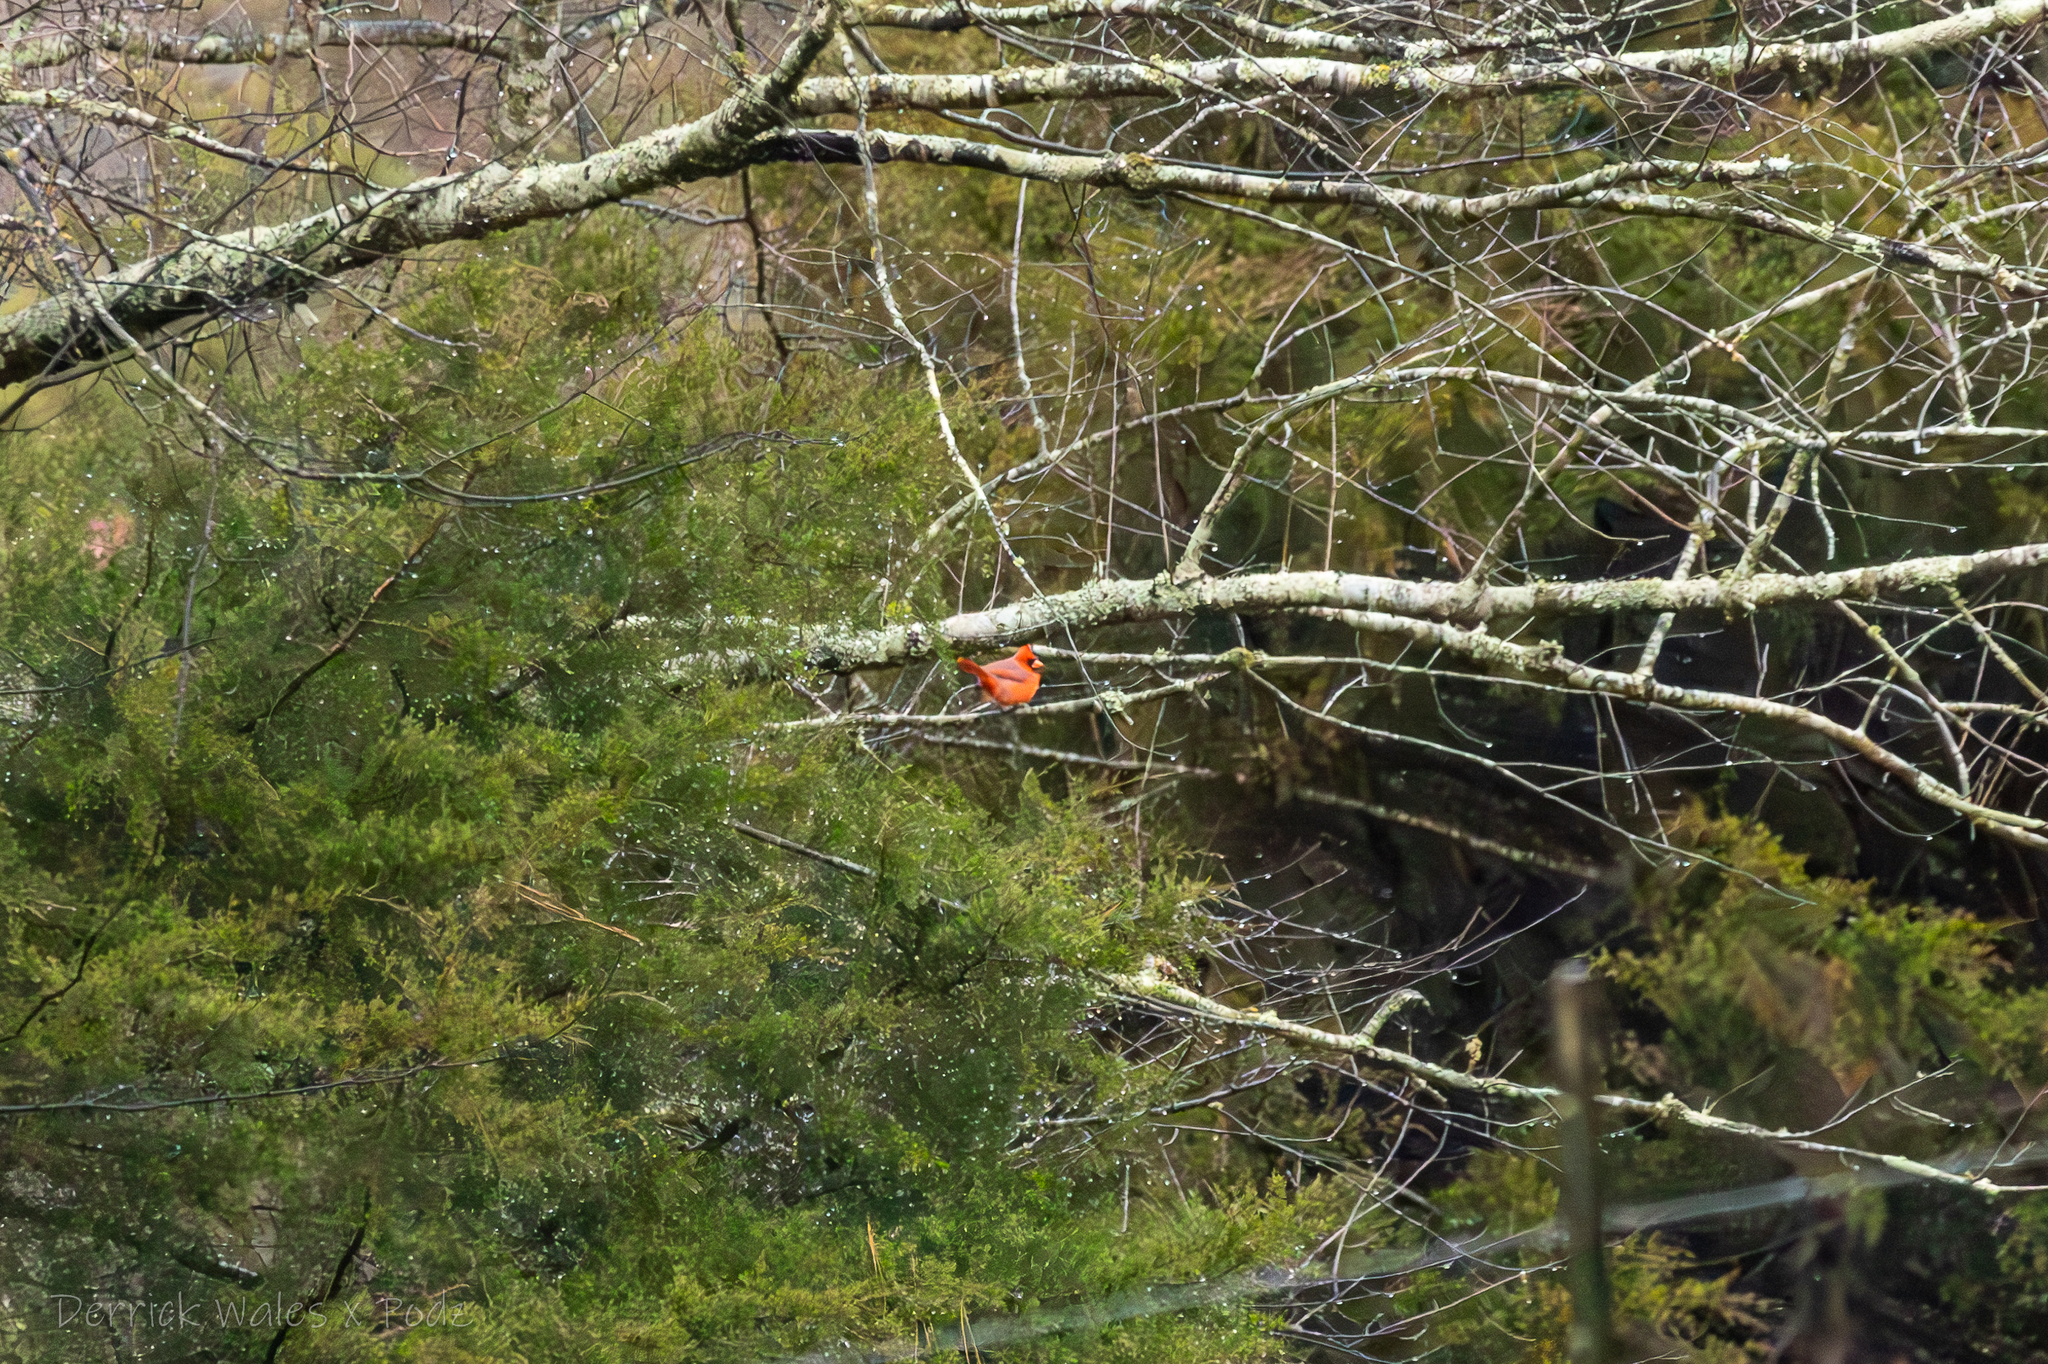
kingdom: Animalia
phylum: Chordata
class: Aves
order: Passeriformes
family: Cardinalidae
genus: Cardinalis
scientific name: Cardinalis cardinalis
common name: Northern cardinal
